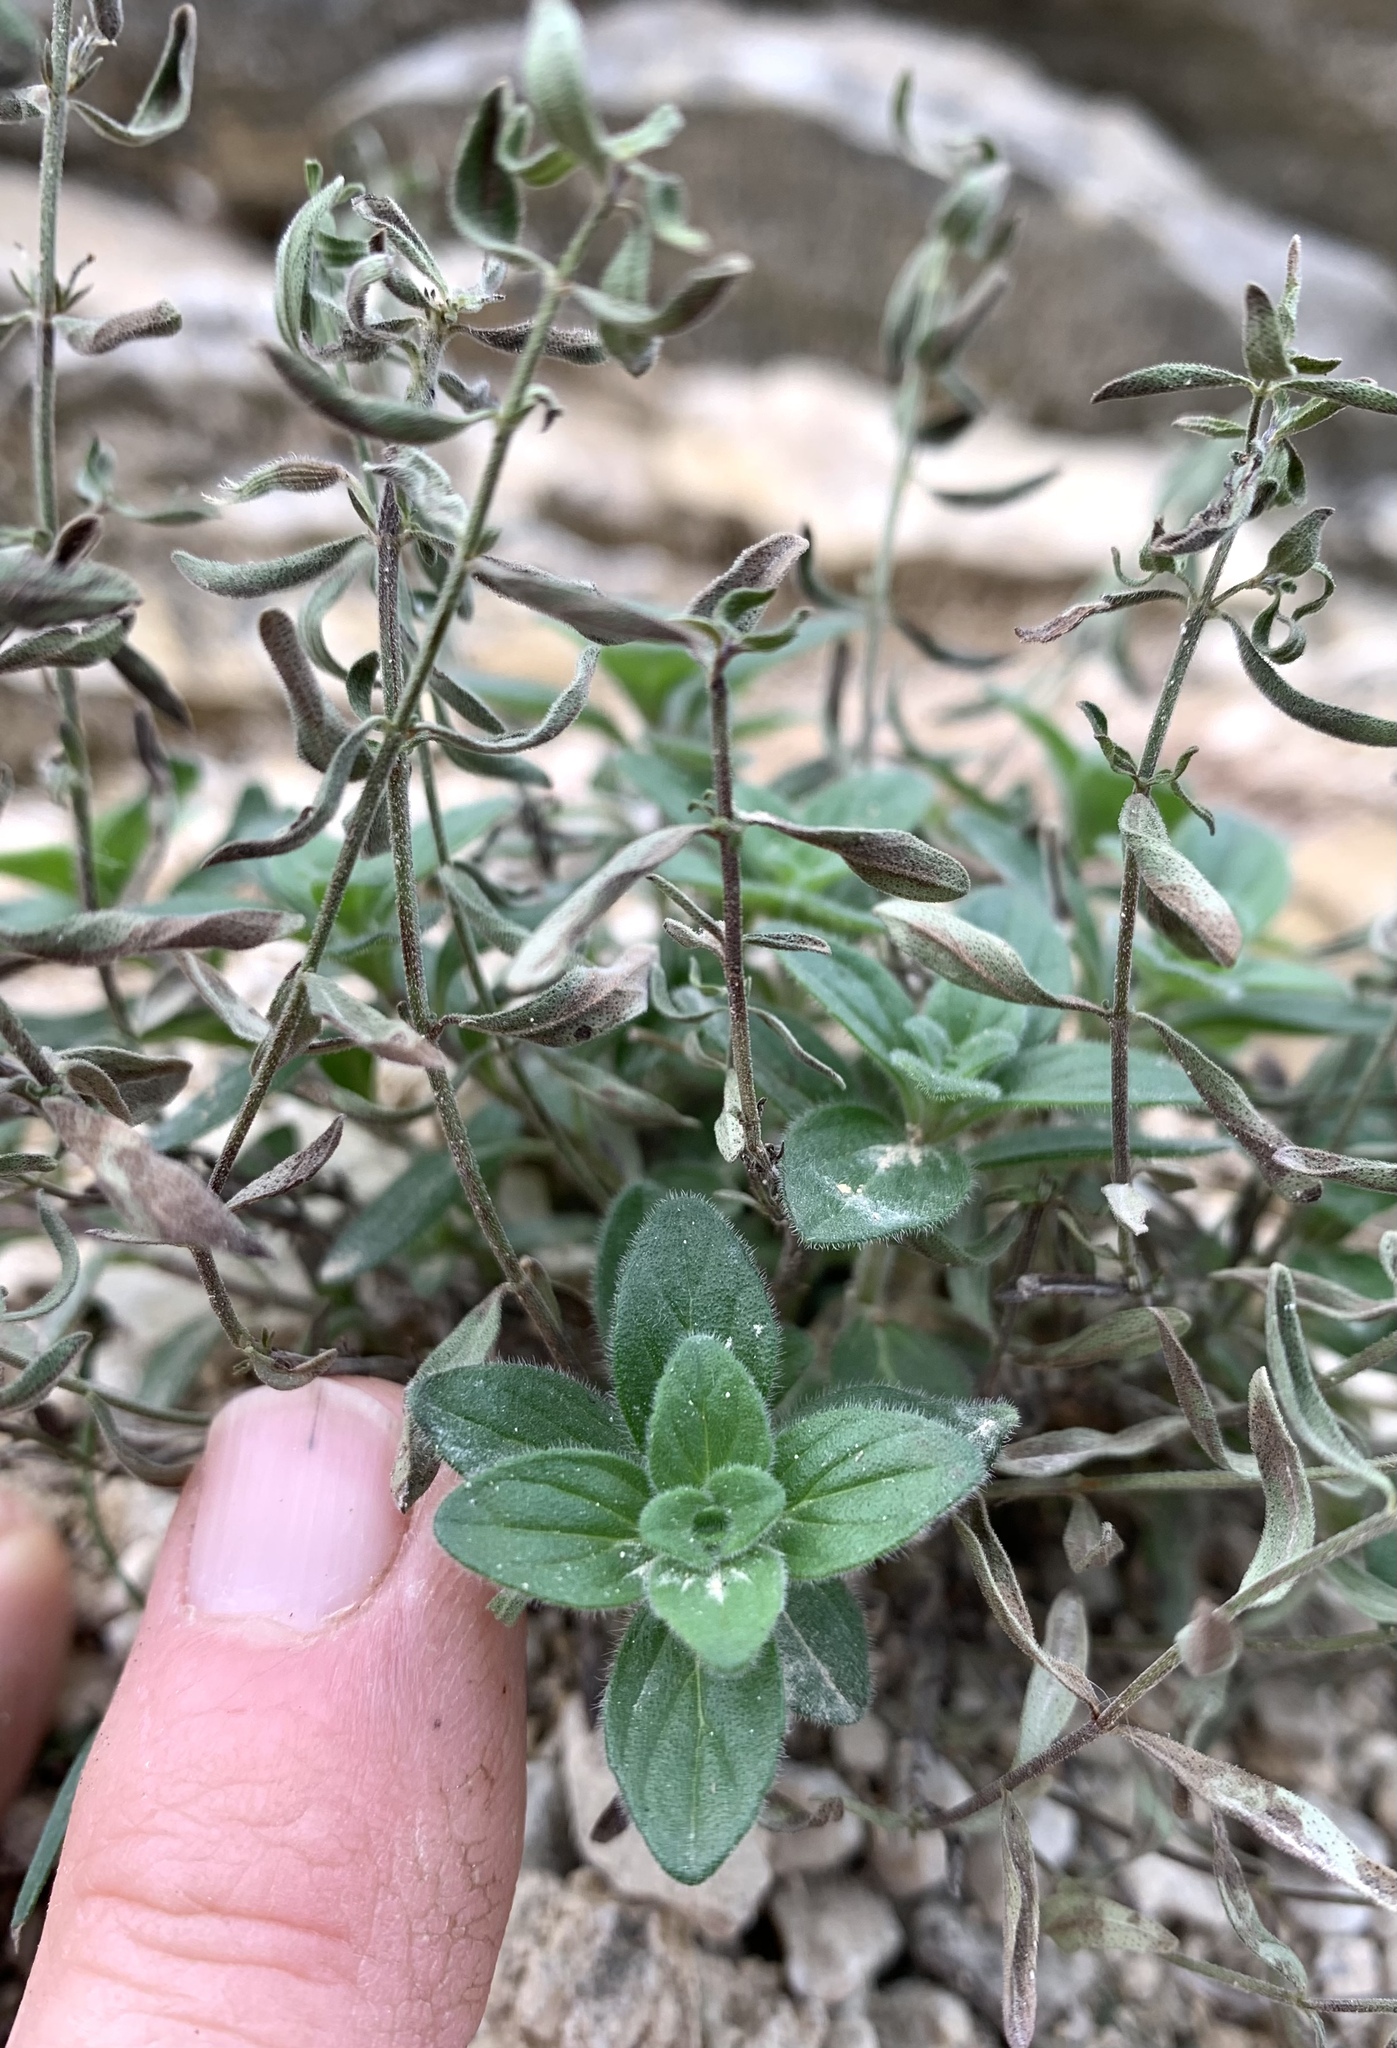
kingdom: Plantae
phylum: Tracheophyta
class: Magnoliopsida
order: Lamiales
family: Lamiaceae
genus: Hedeoma
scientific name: Hedeoma reverchonii
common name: Reverchon's false penny-royal
